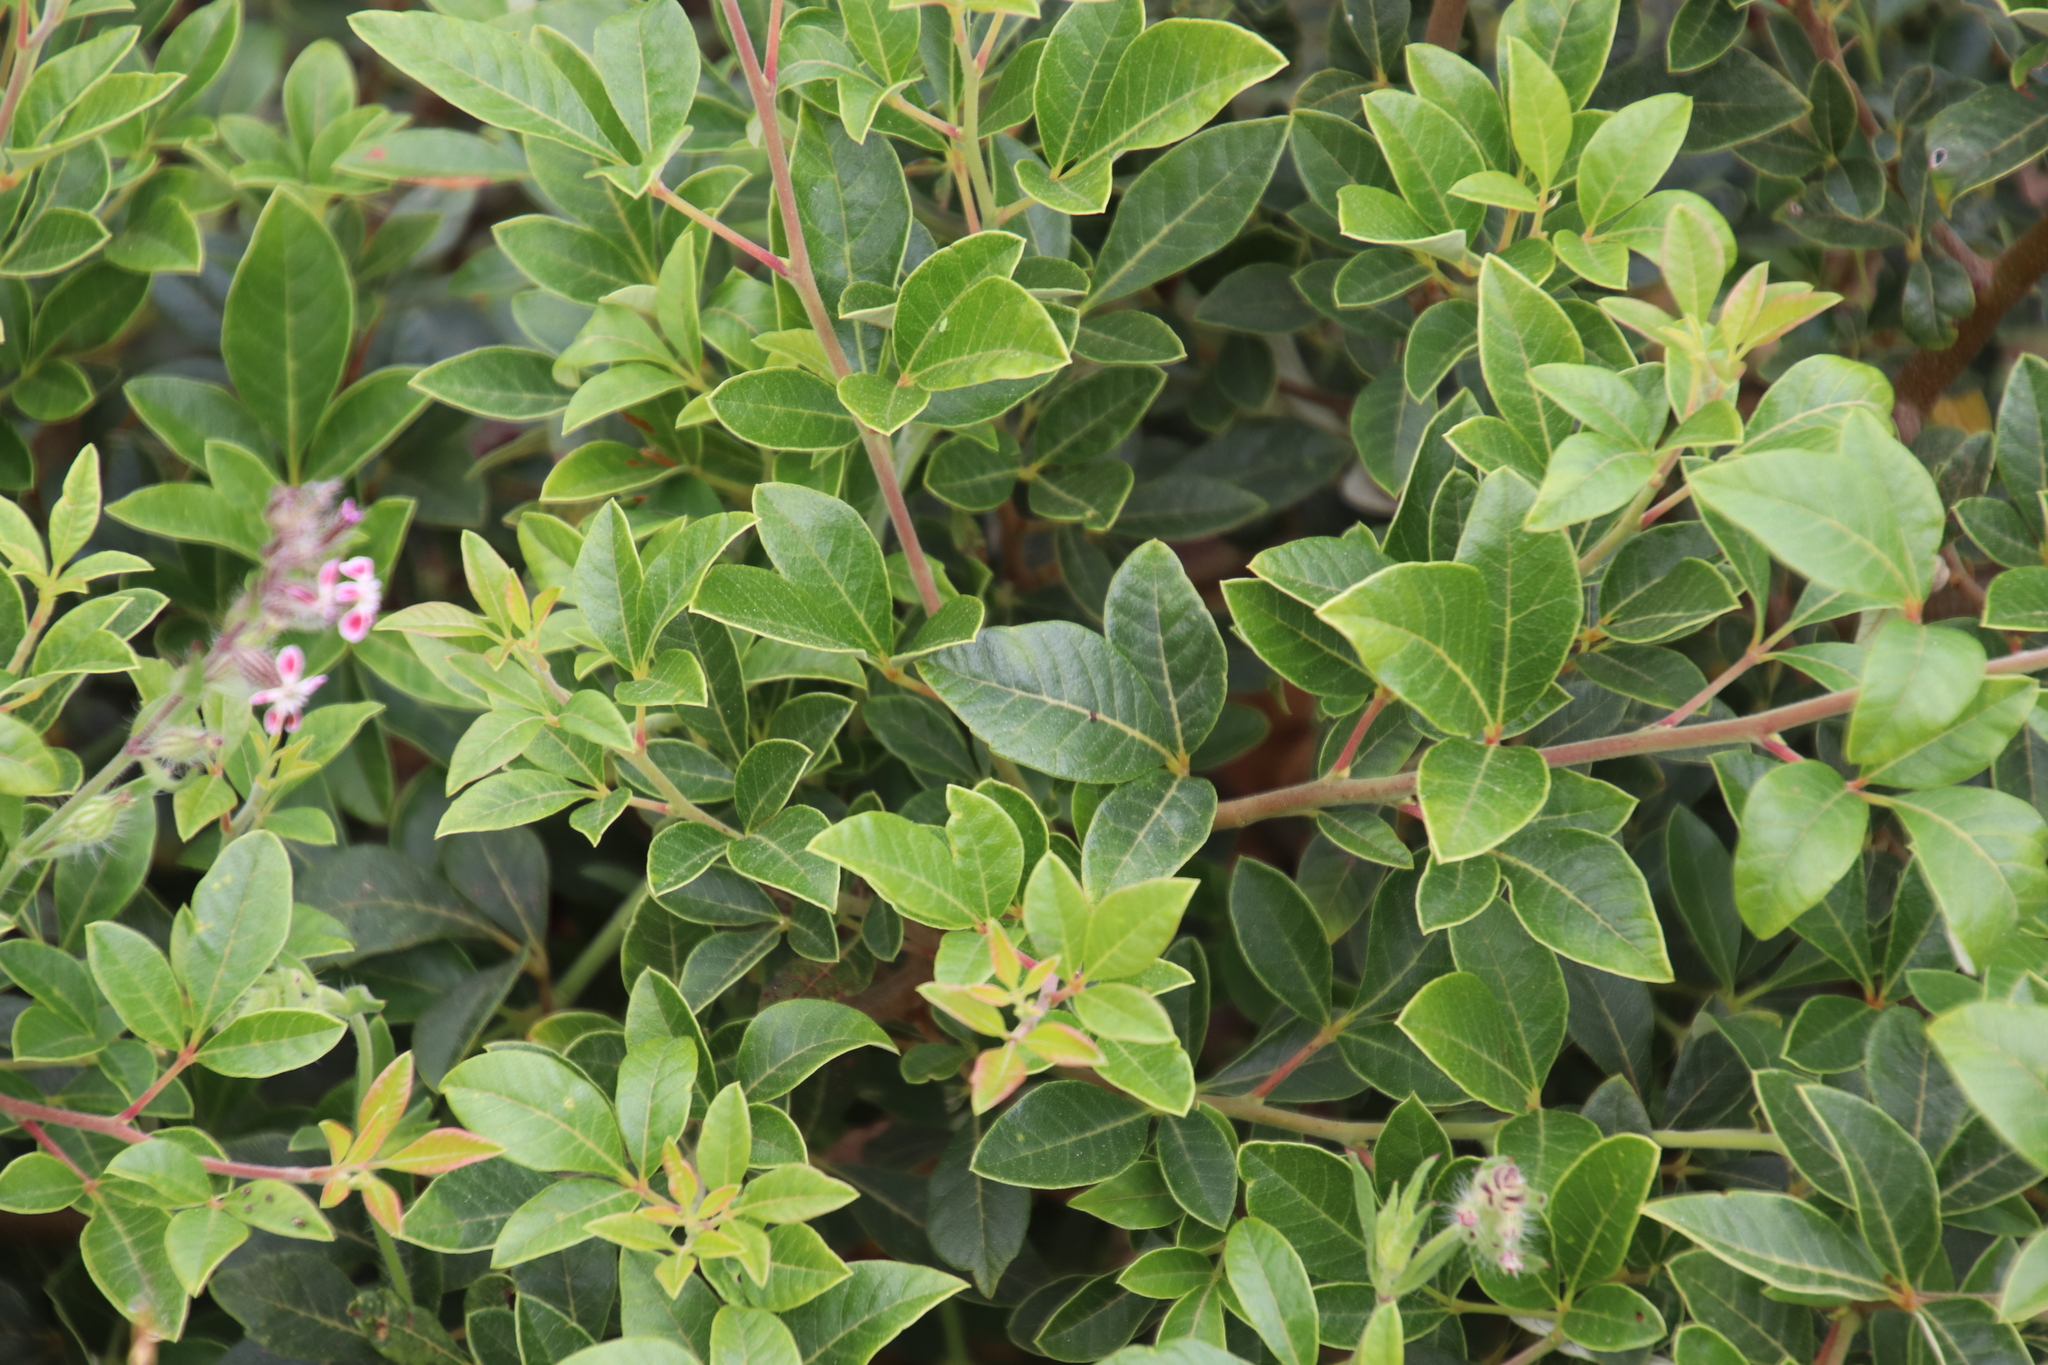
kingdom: Plantae
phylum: Tracheophyta
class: Magnoliopsida
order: Sapindales
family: Anacardiaceae
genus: Searsia
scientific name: Searsia tomentosa
